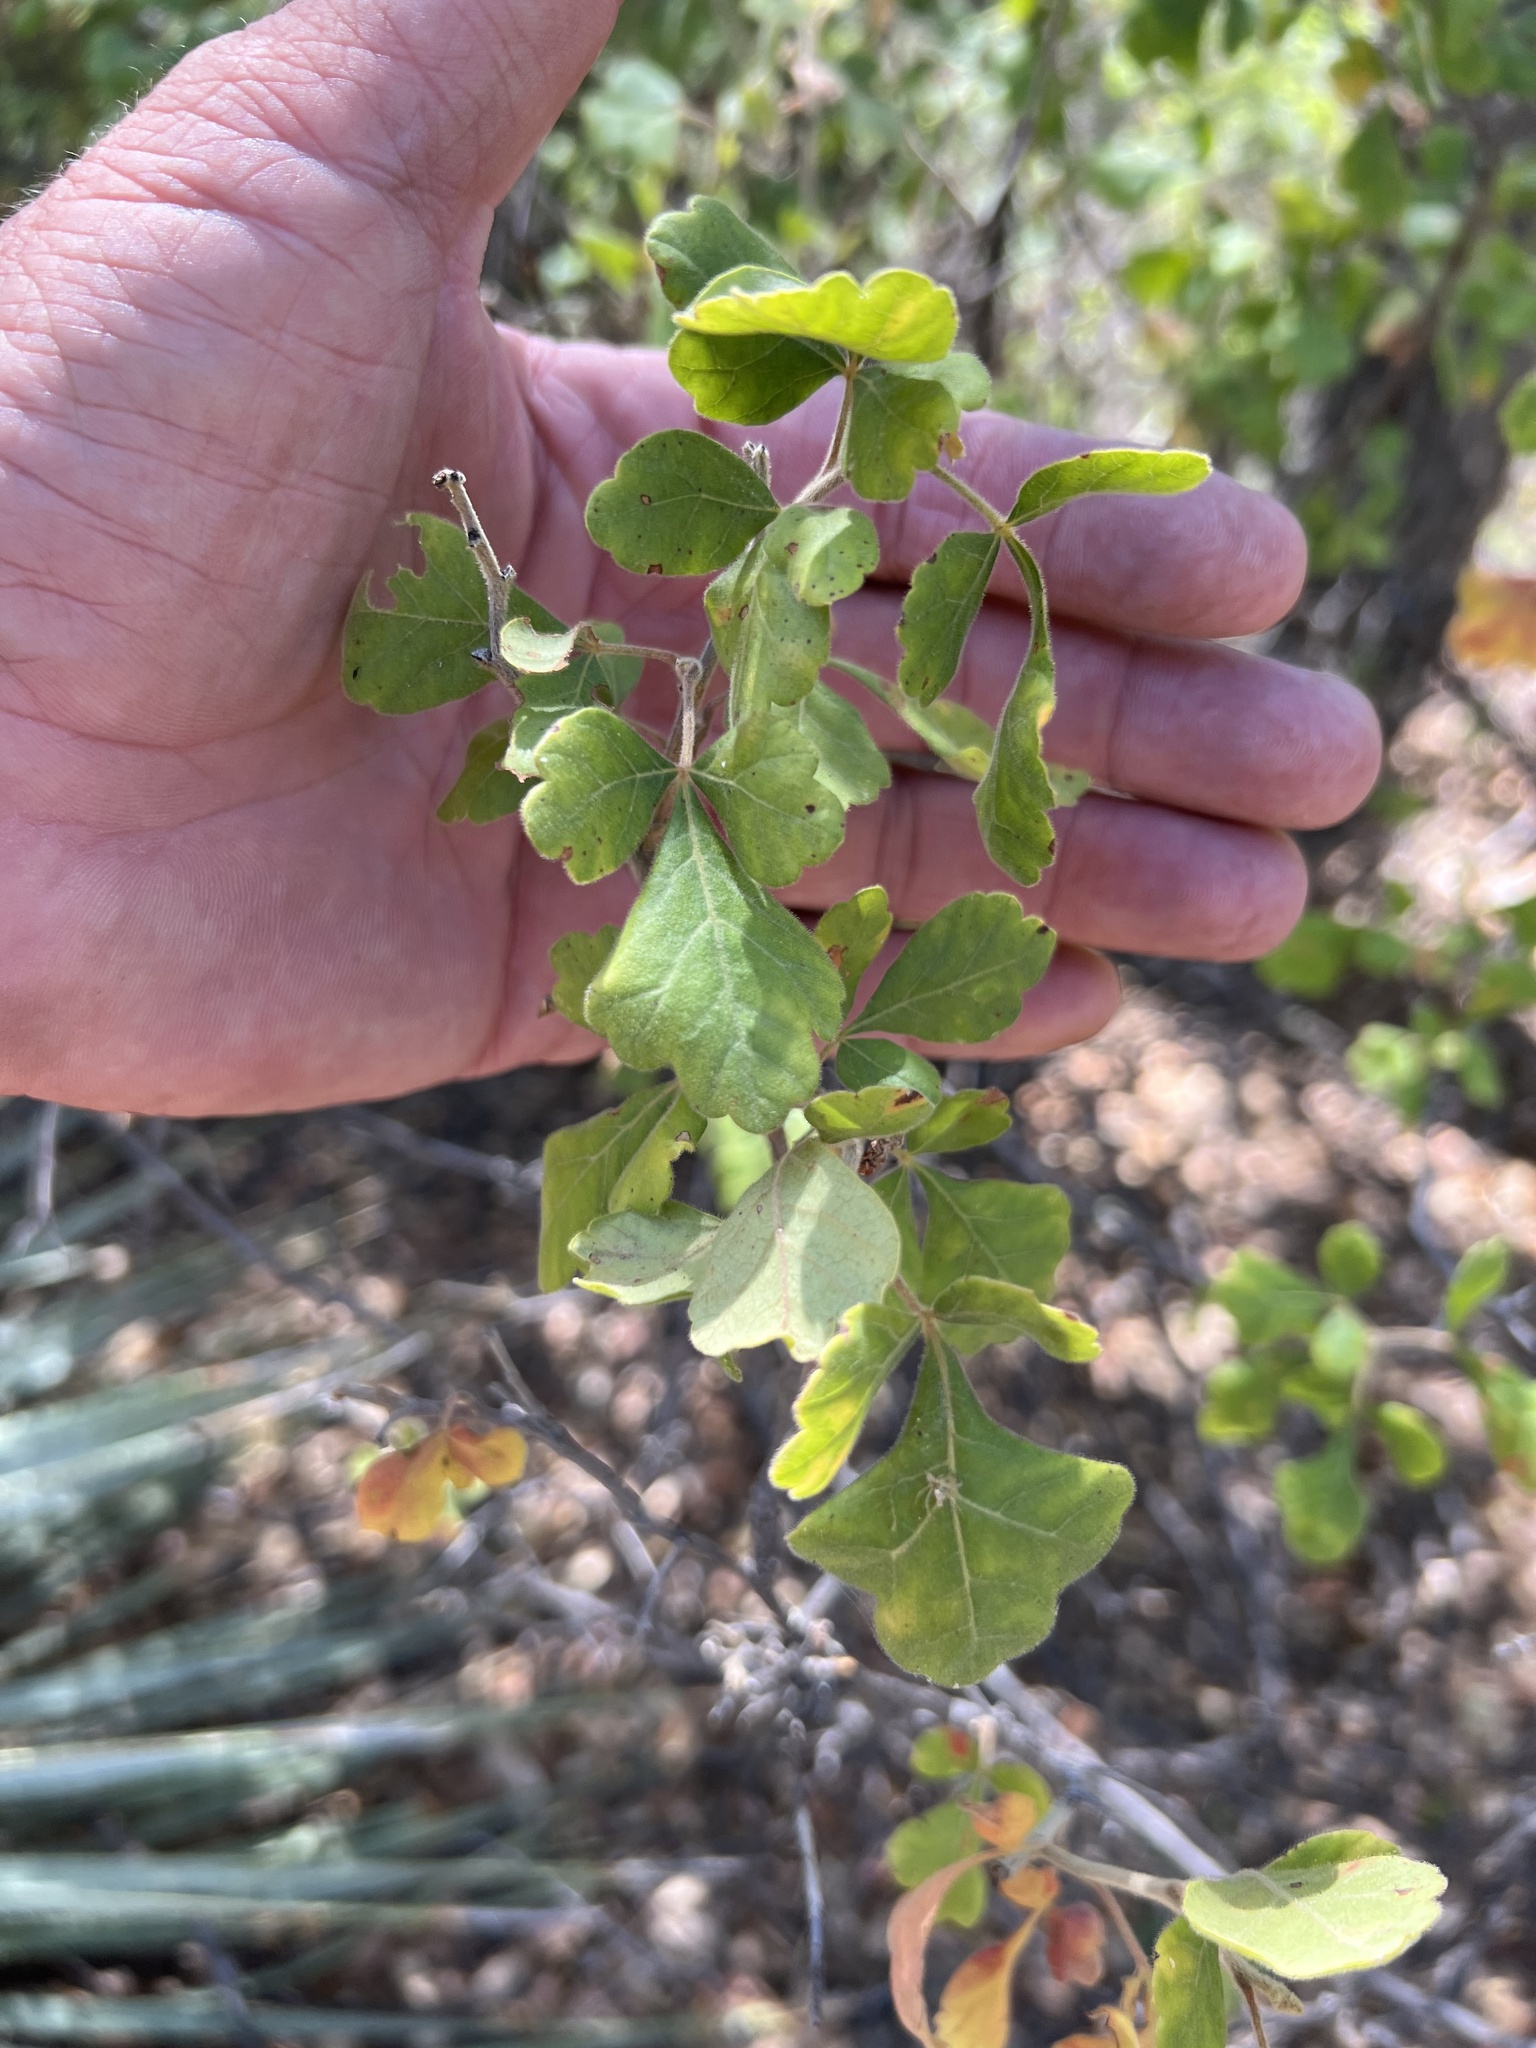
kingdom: Plantae
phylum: Tracheophyta
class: Magnoliopsida
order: Sapindales
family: Anacardiaceae
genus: Rhus
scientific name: Rhus trilobata
